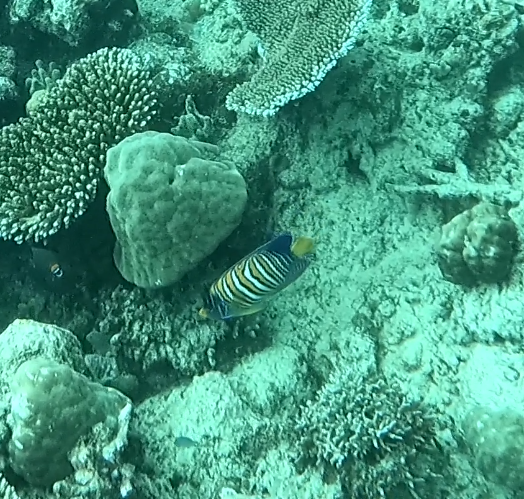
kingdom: Animalia
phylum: Chordata
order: Perciformes
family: Pomacanthidae
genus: Pygoplites
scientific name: Pygoplites diacanthus
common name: Regal angelfish
